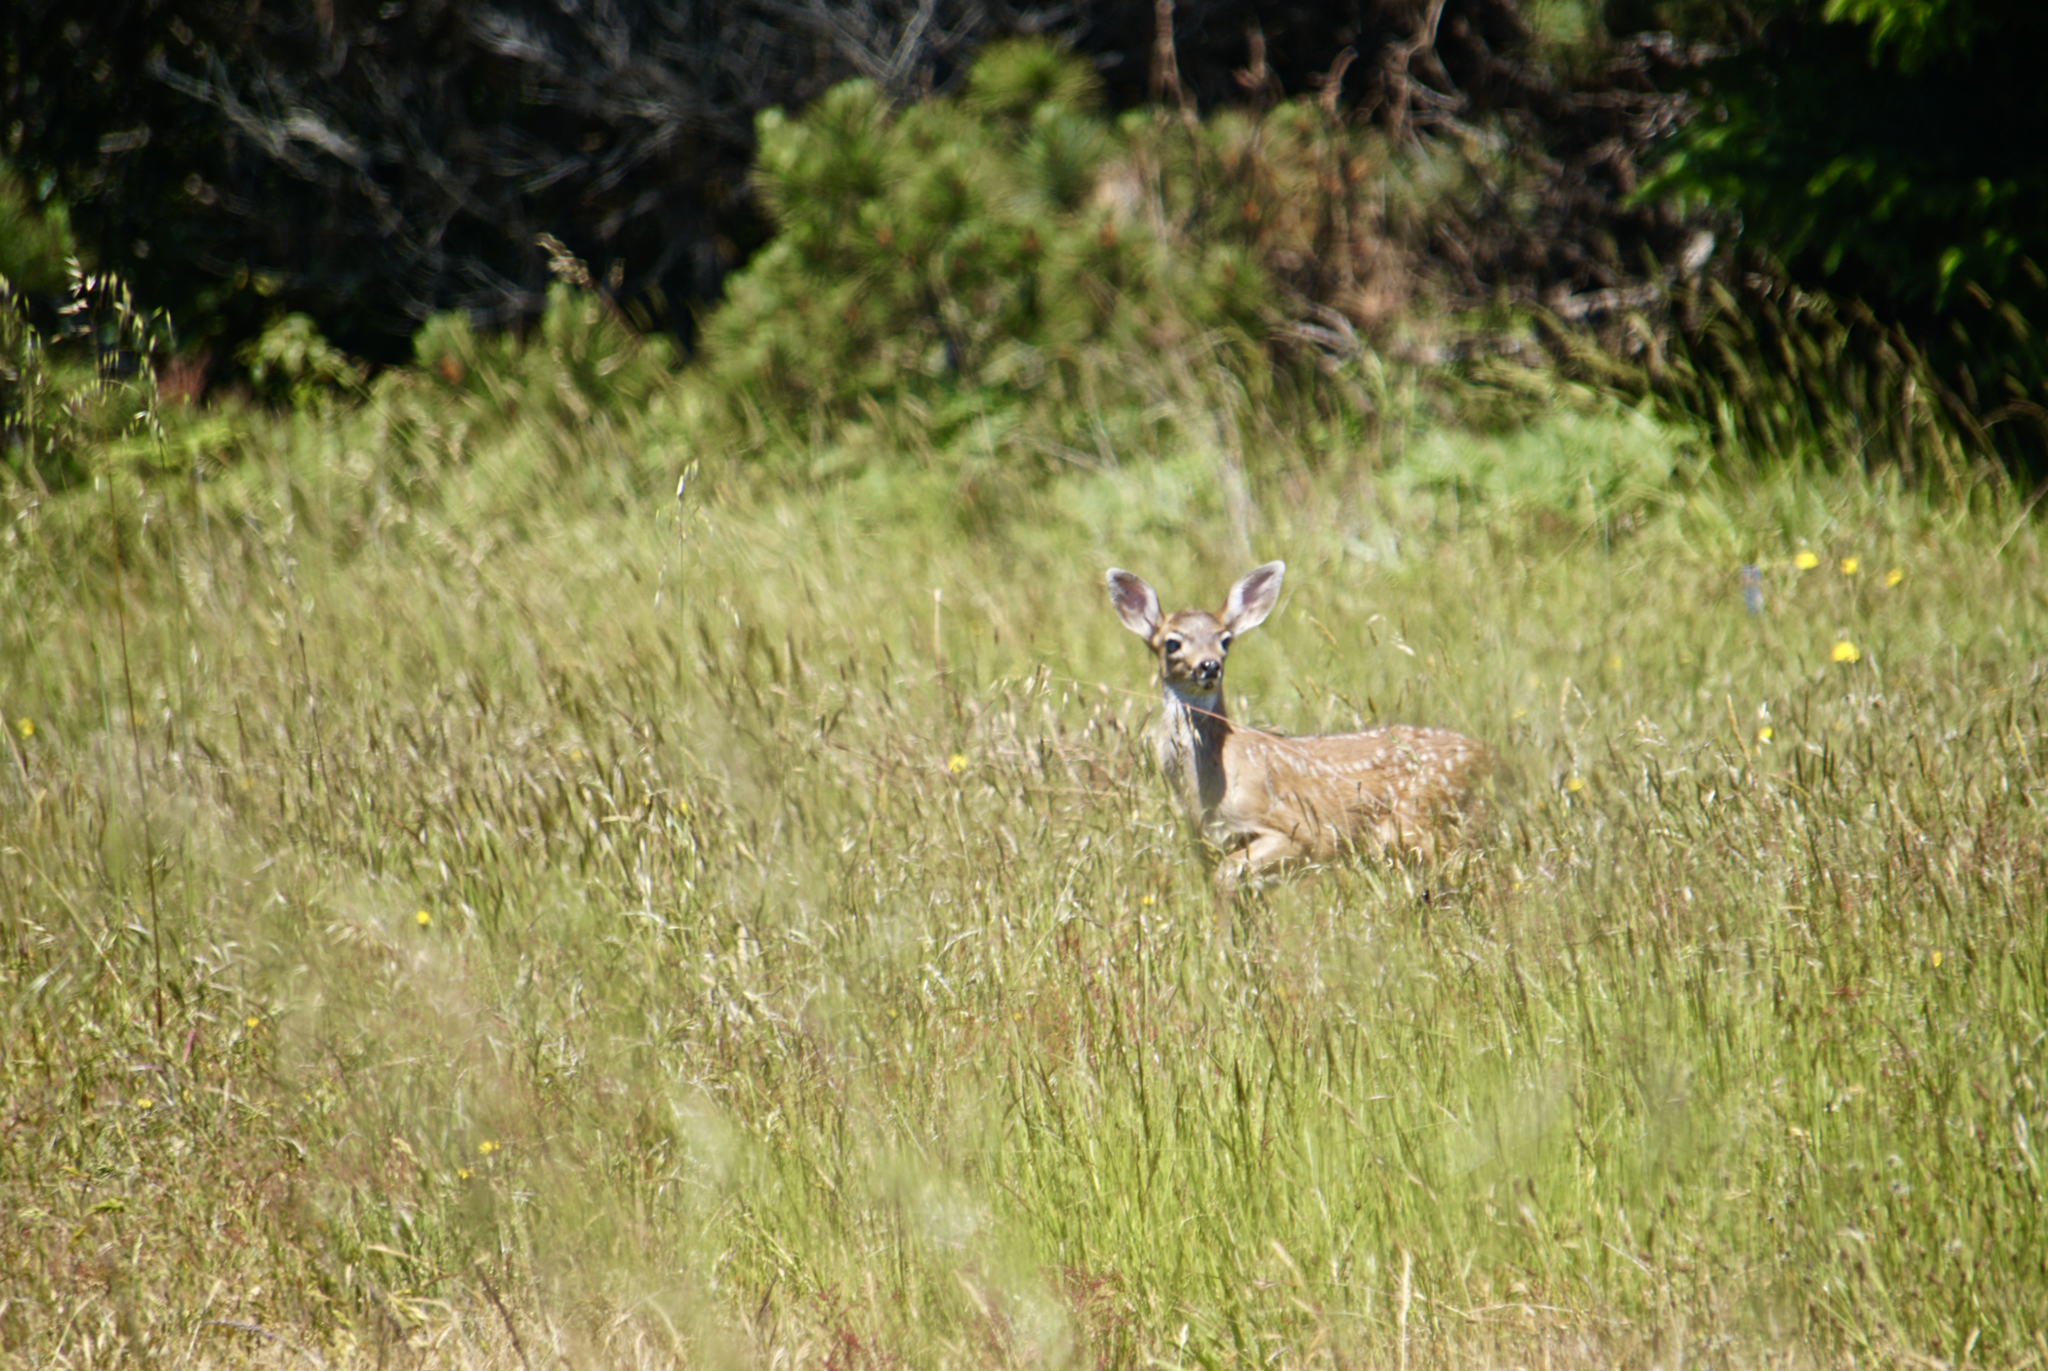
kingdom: Animalia
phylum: Chordata
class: Mammalia
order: Artiodactyla
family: Cervidae
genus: Odocoileus
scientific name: Odocoileus hemionus
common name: Mule deer
